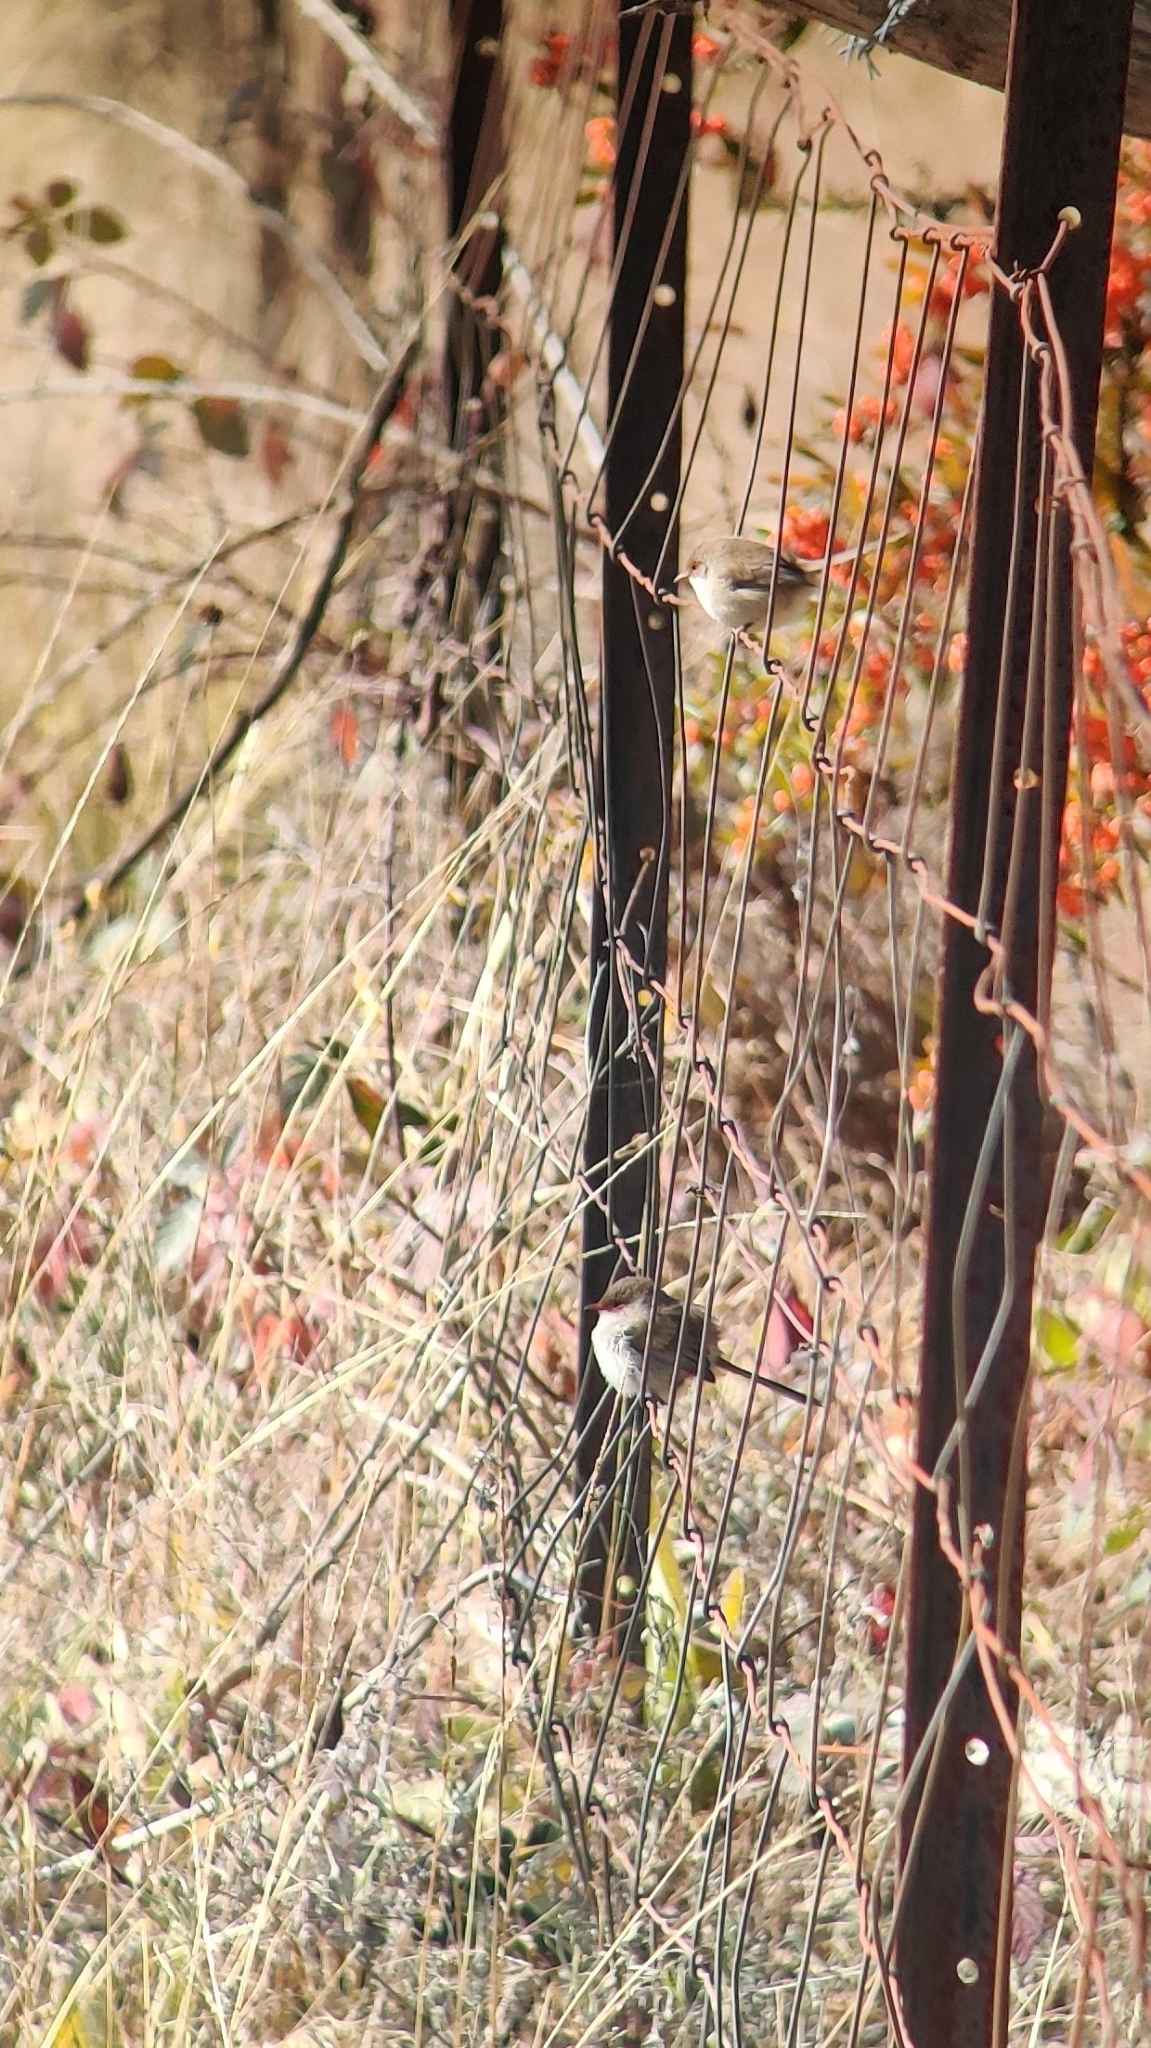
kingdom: Animalia
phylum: Chordata
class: Aves
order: Passeriformes
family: Maluridae
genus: Malurus
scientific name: Malurus cyaneus
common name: Superb fairywren
